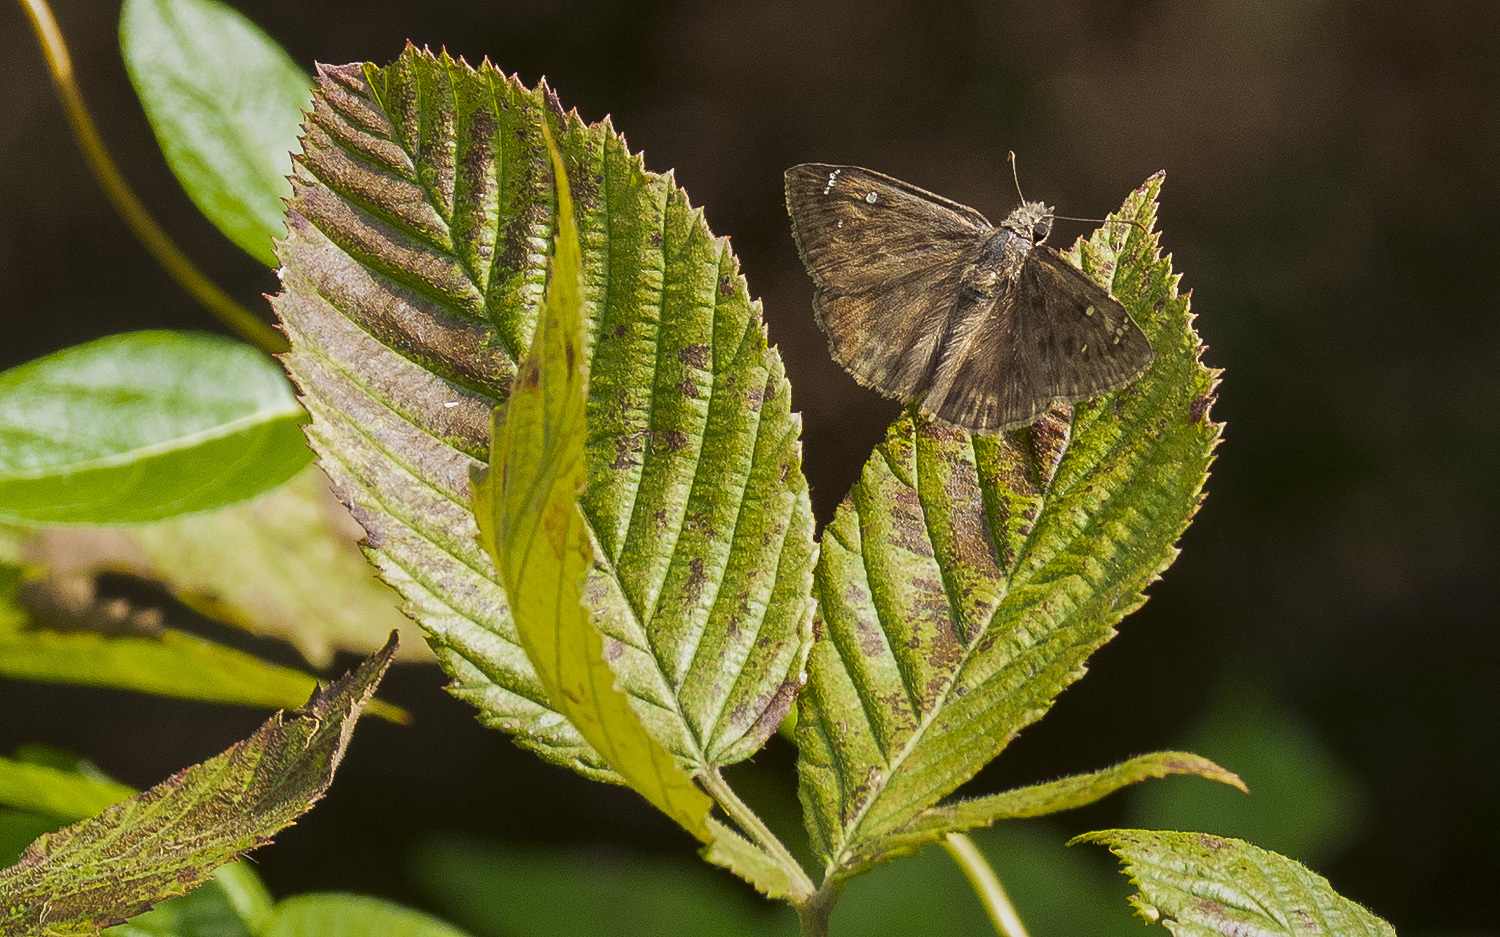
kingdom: Animalia
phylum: Arthropoda
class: Insecta
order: Lepidoptera
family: Hesperiidae
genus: Erynnis
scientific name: Erynnis horatius
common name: Horace's duskywing
